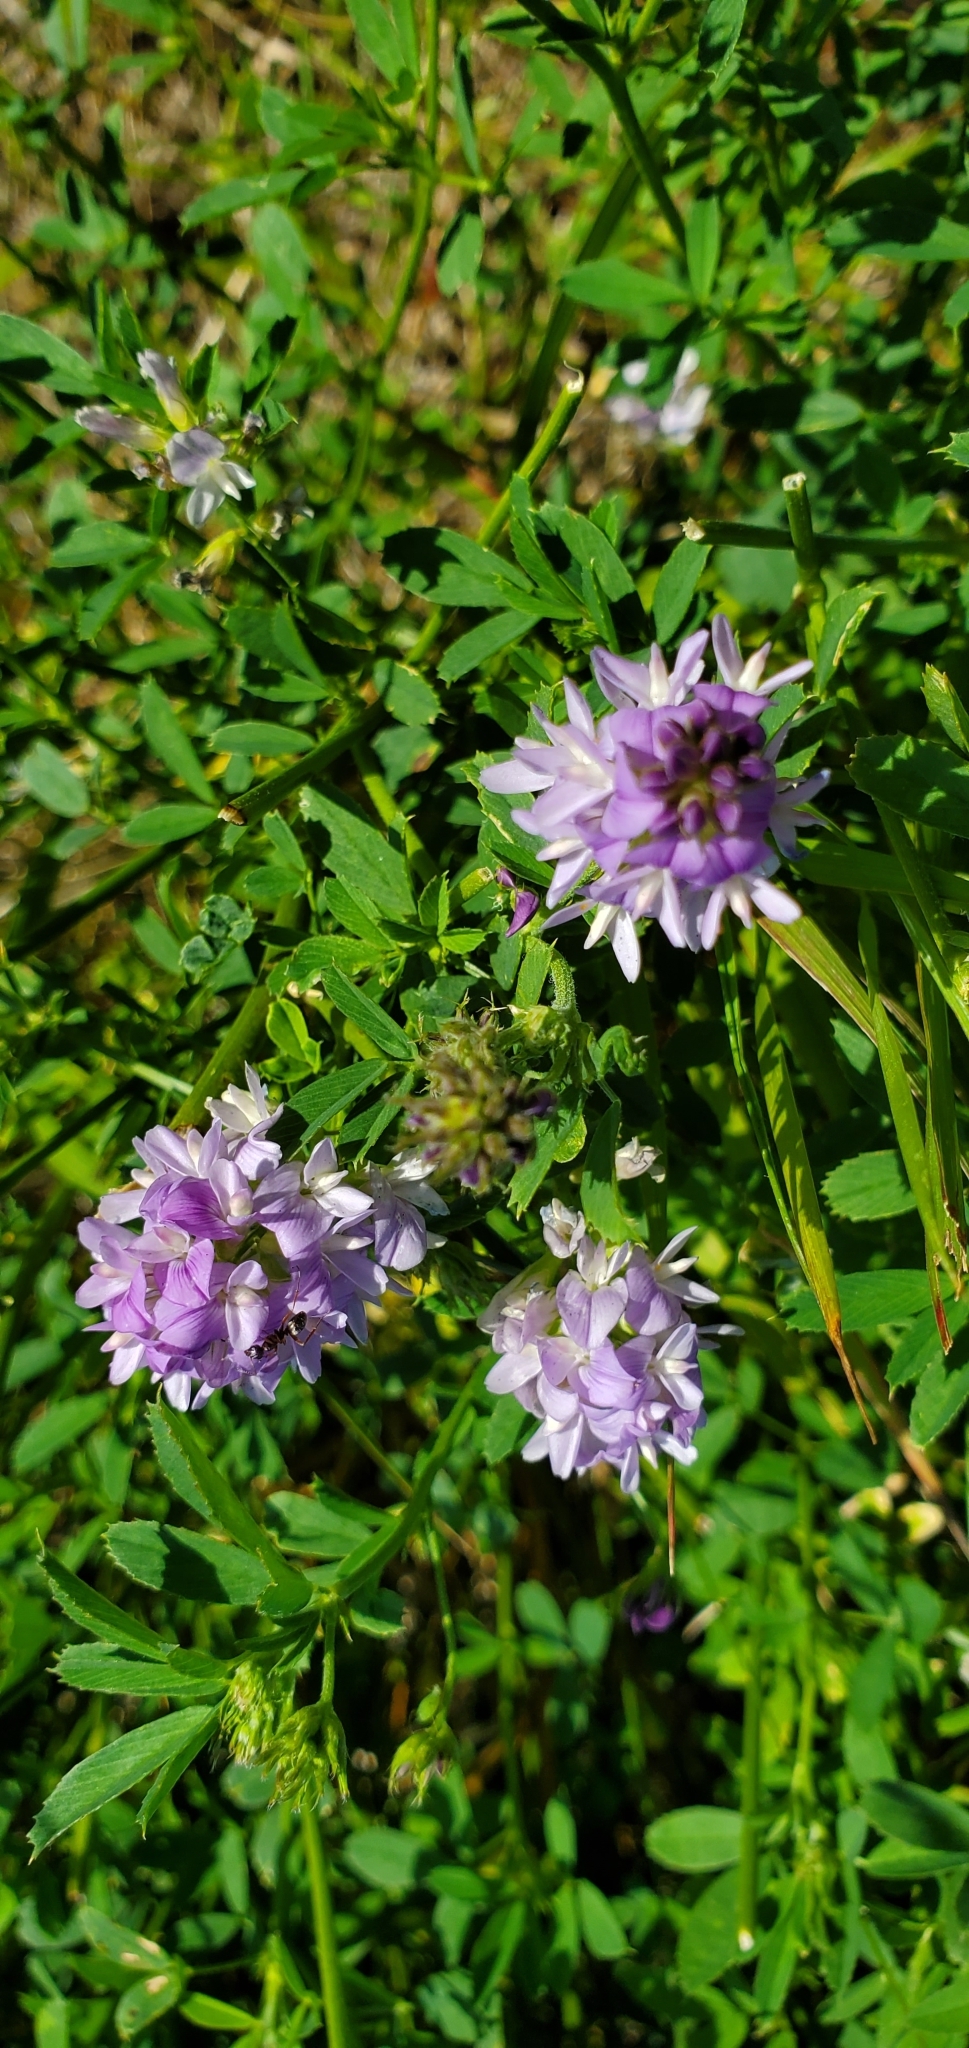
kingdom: Plantae
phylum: Tracheophyta
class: Magnoliopsida
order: Fabales
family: Fabaceae
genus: Medicago
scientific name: Medicago sativa
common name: Alfalfa
